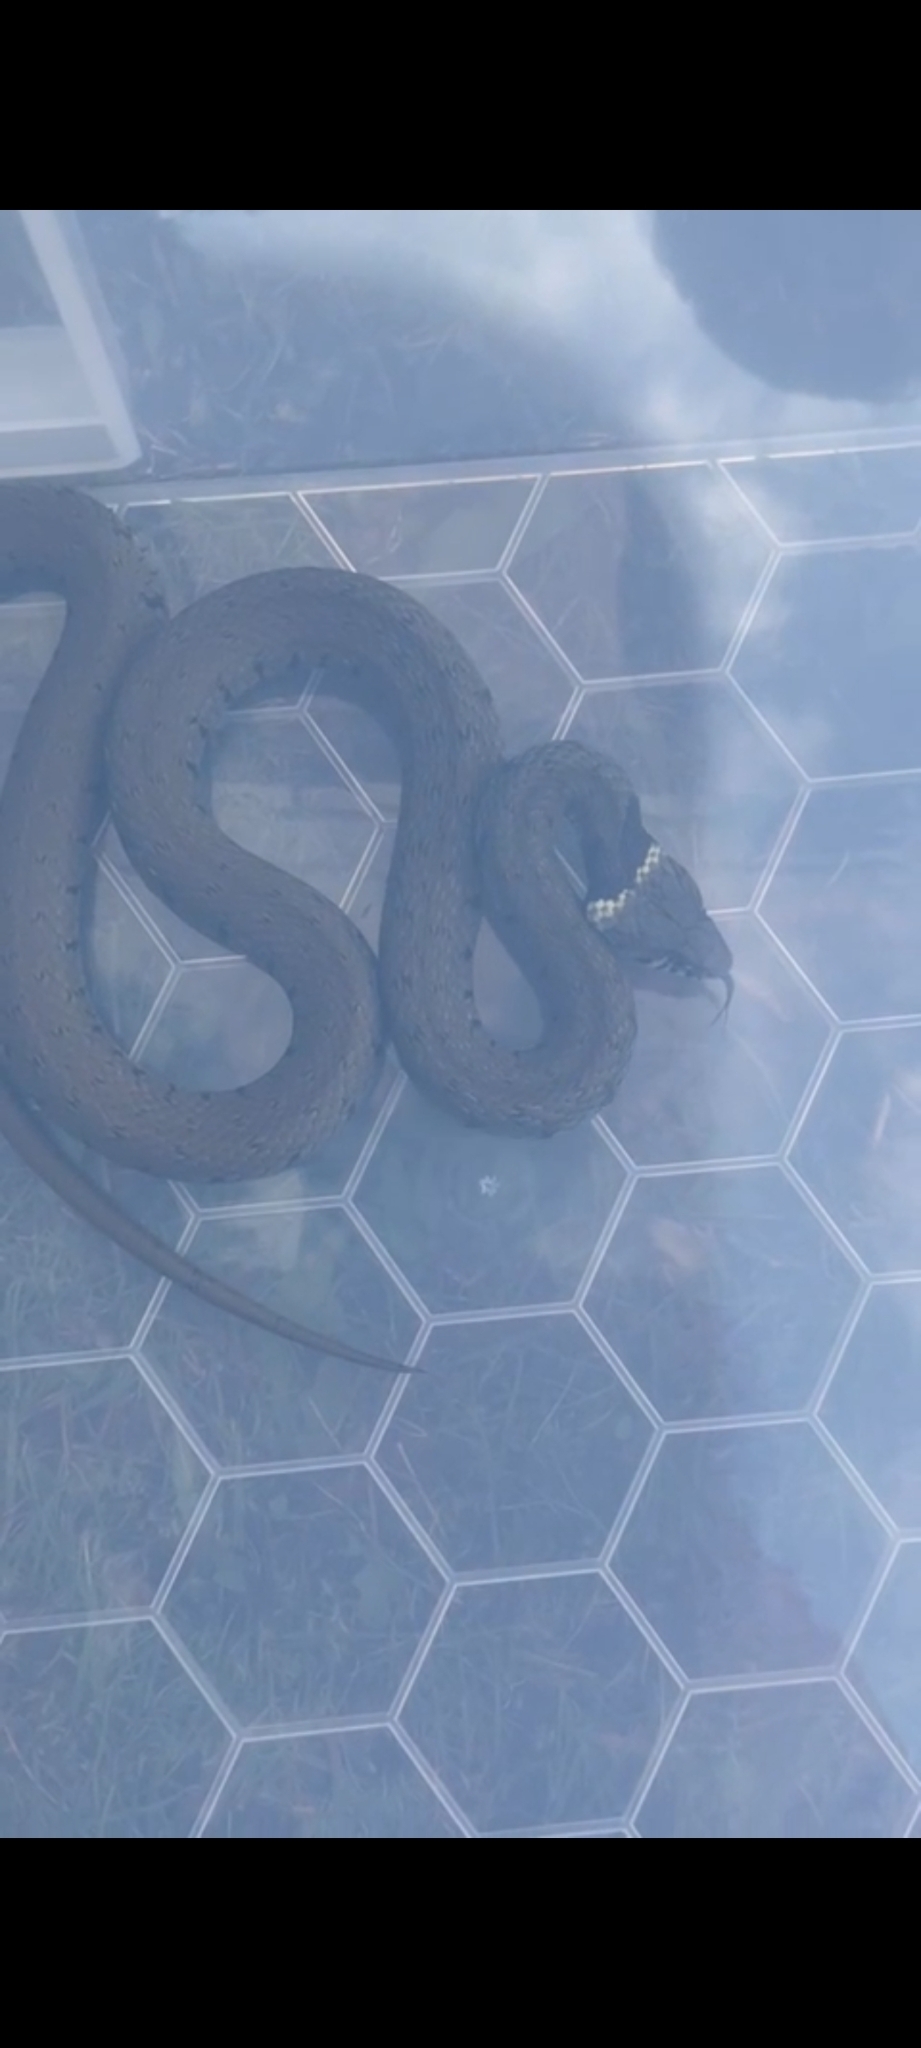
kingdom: Animalia
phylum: Chordata
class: Squamata
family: Colubridae
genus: Natrix
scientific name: Natrix natrix
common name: Grass snake
